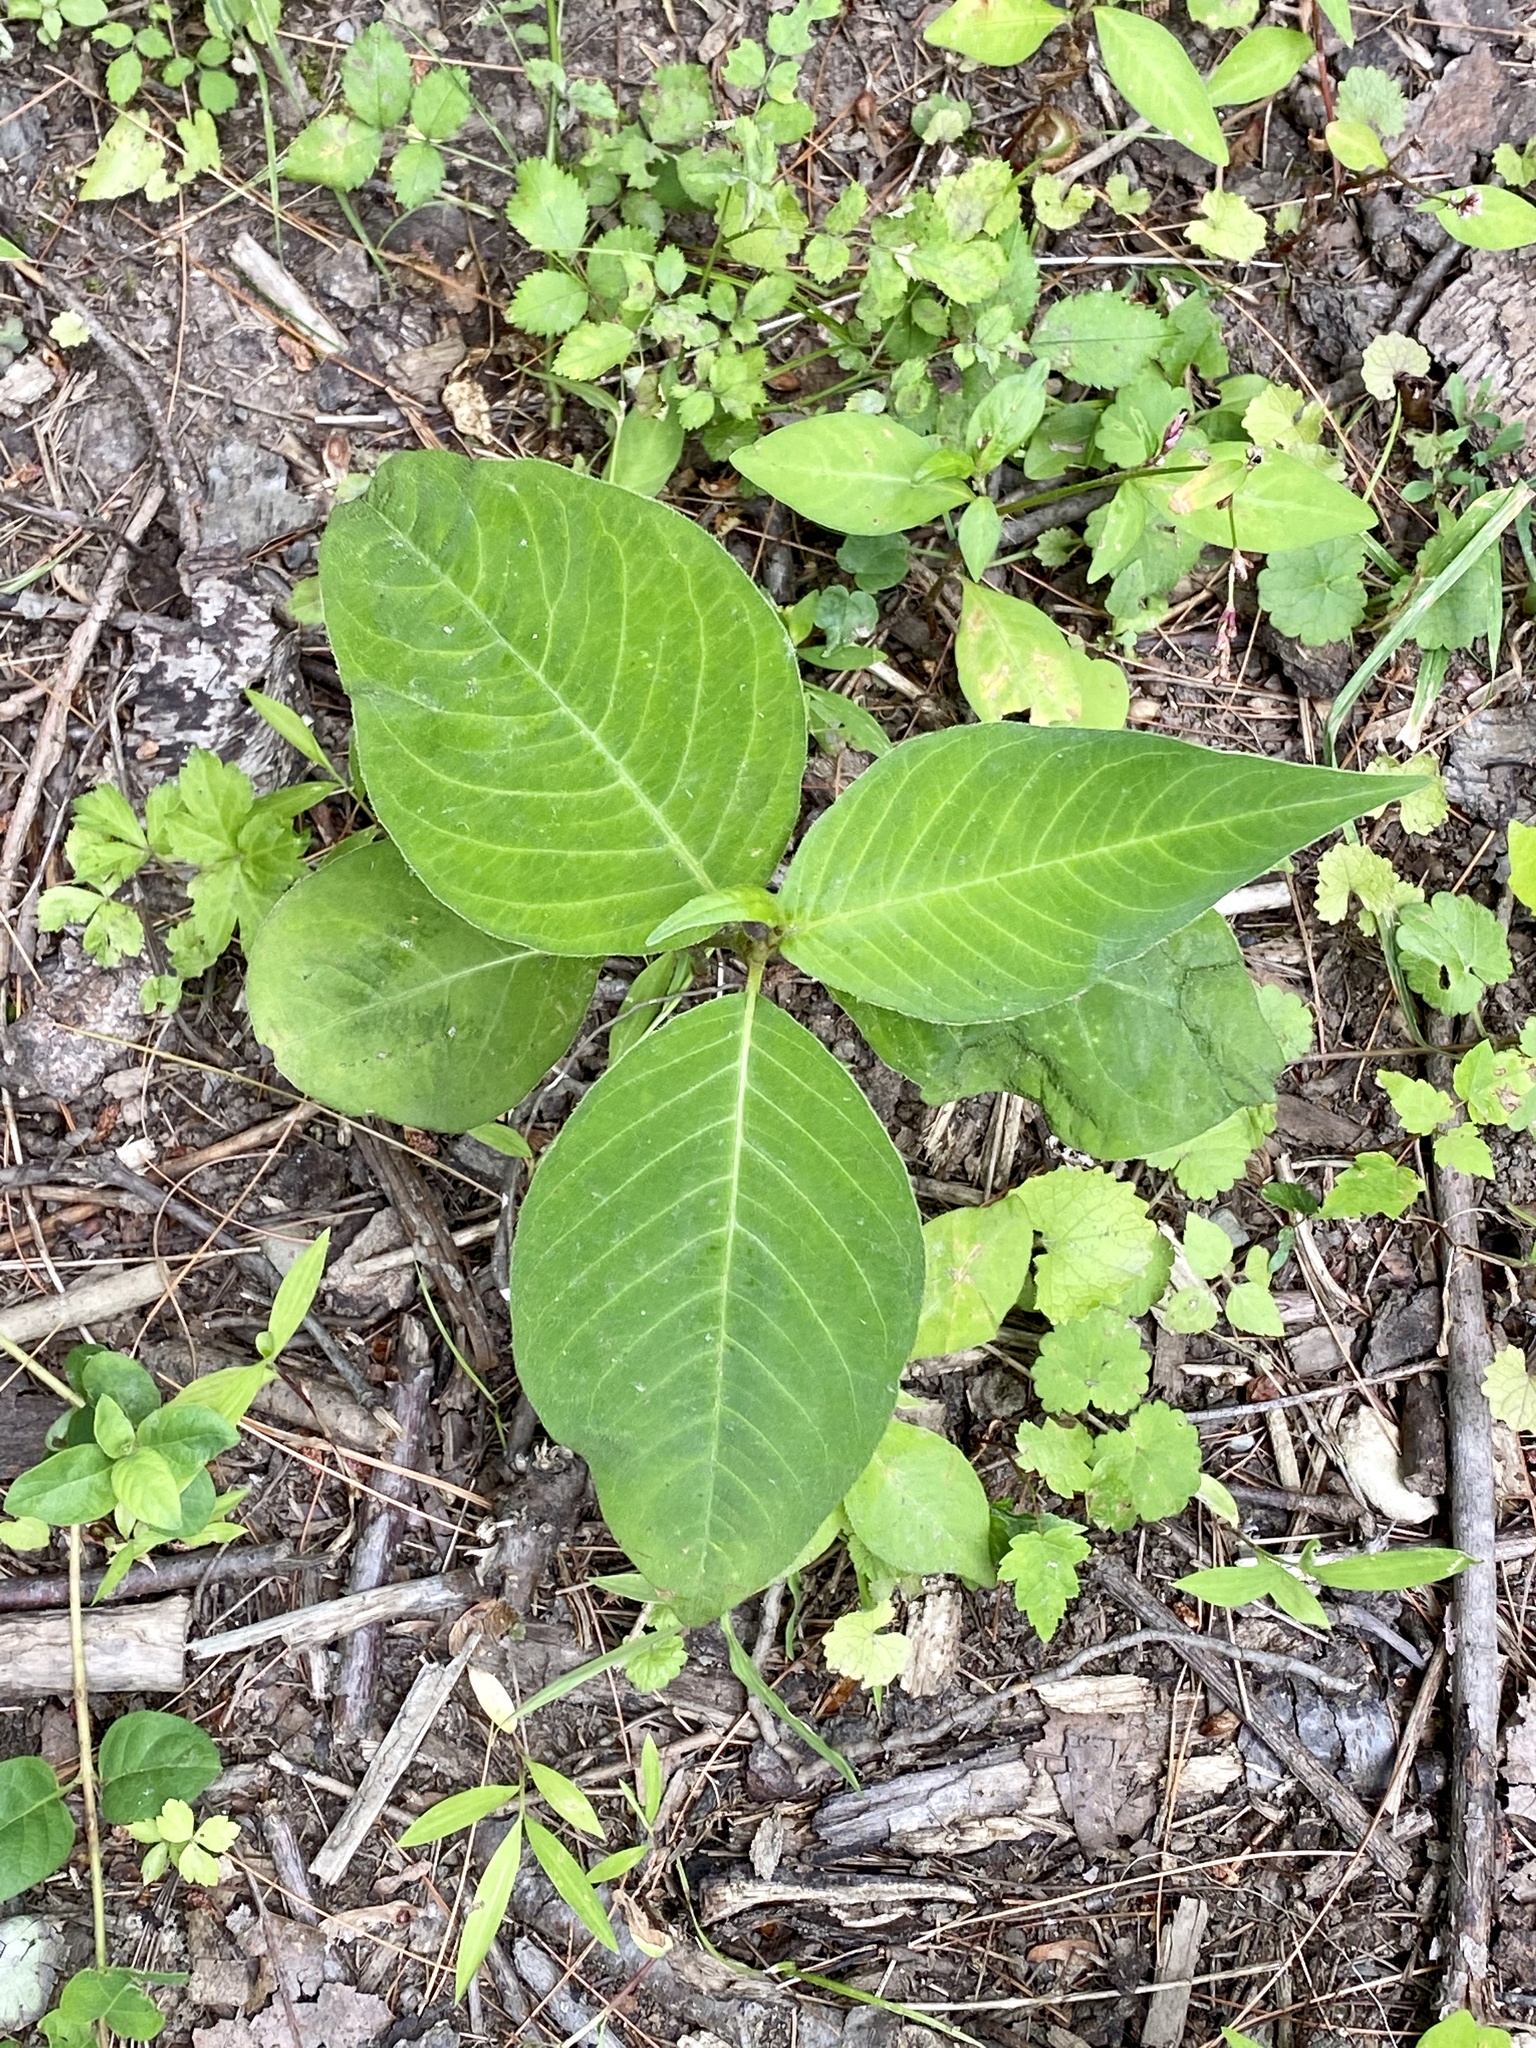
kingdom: Plantae
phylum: Tracheophyta
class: Magnoliopsida
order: Caryophyllales
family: Polygonaceae
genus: Persicaria
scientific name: Persicaria virginiana
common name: Jumpseed
